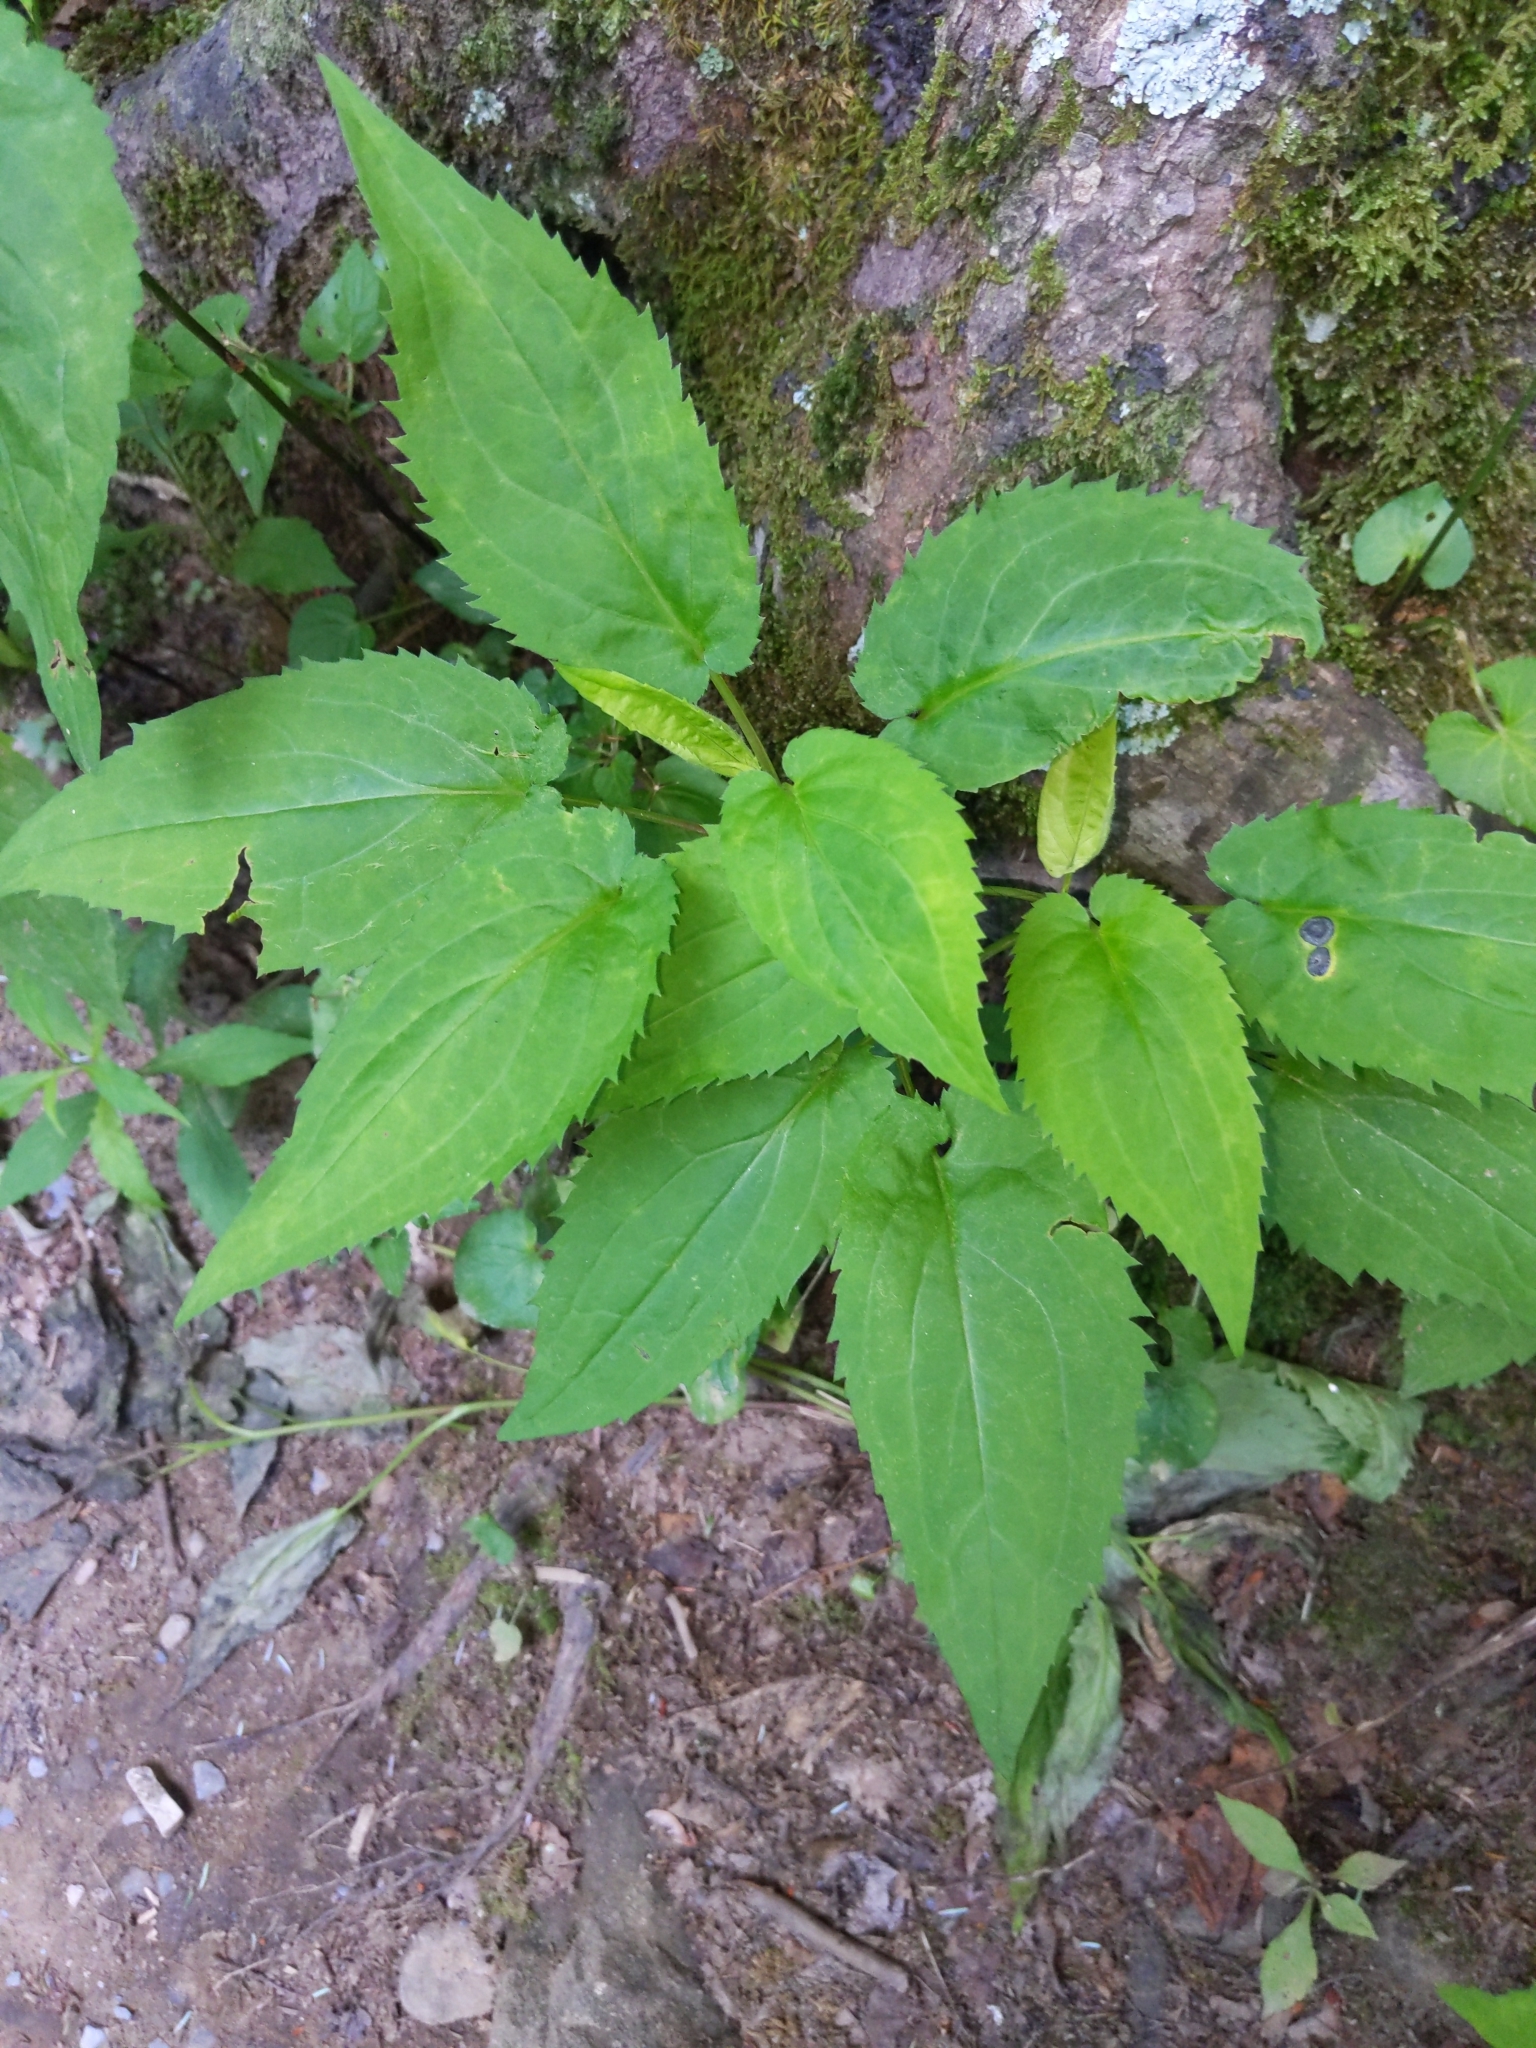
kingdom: Plantae
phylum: Tracheophyta
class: Magnoliopsida
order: Asterales
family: Asteraceae
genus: Solidago
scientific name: Solidago flexicaulis
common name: Zig-zag goldenrod
